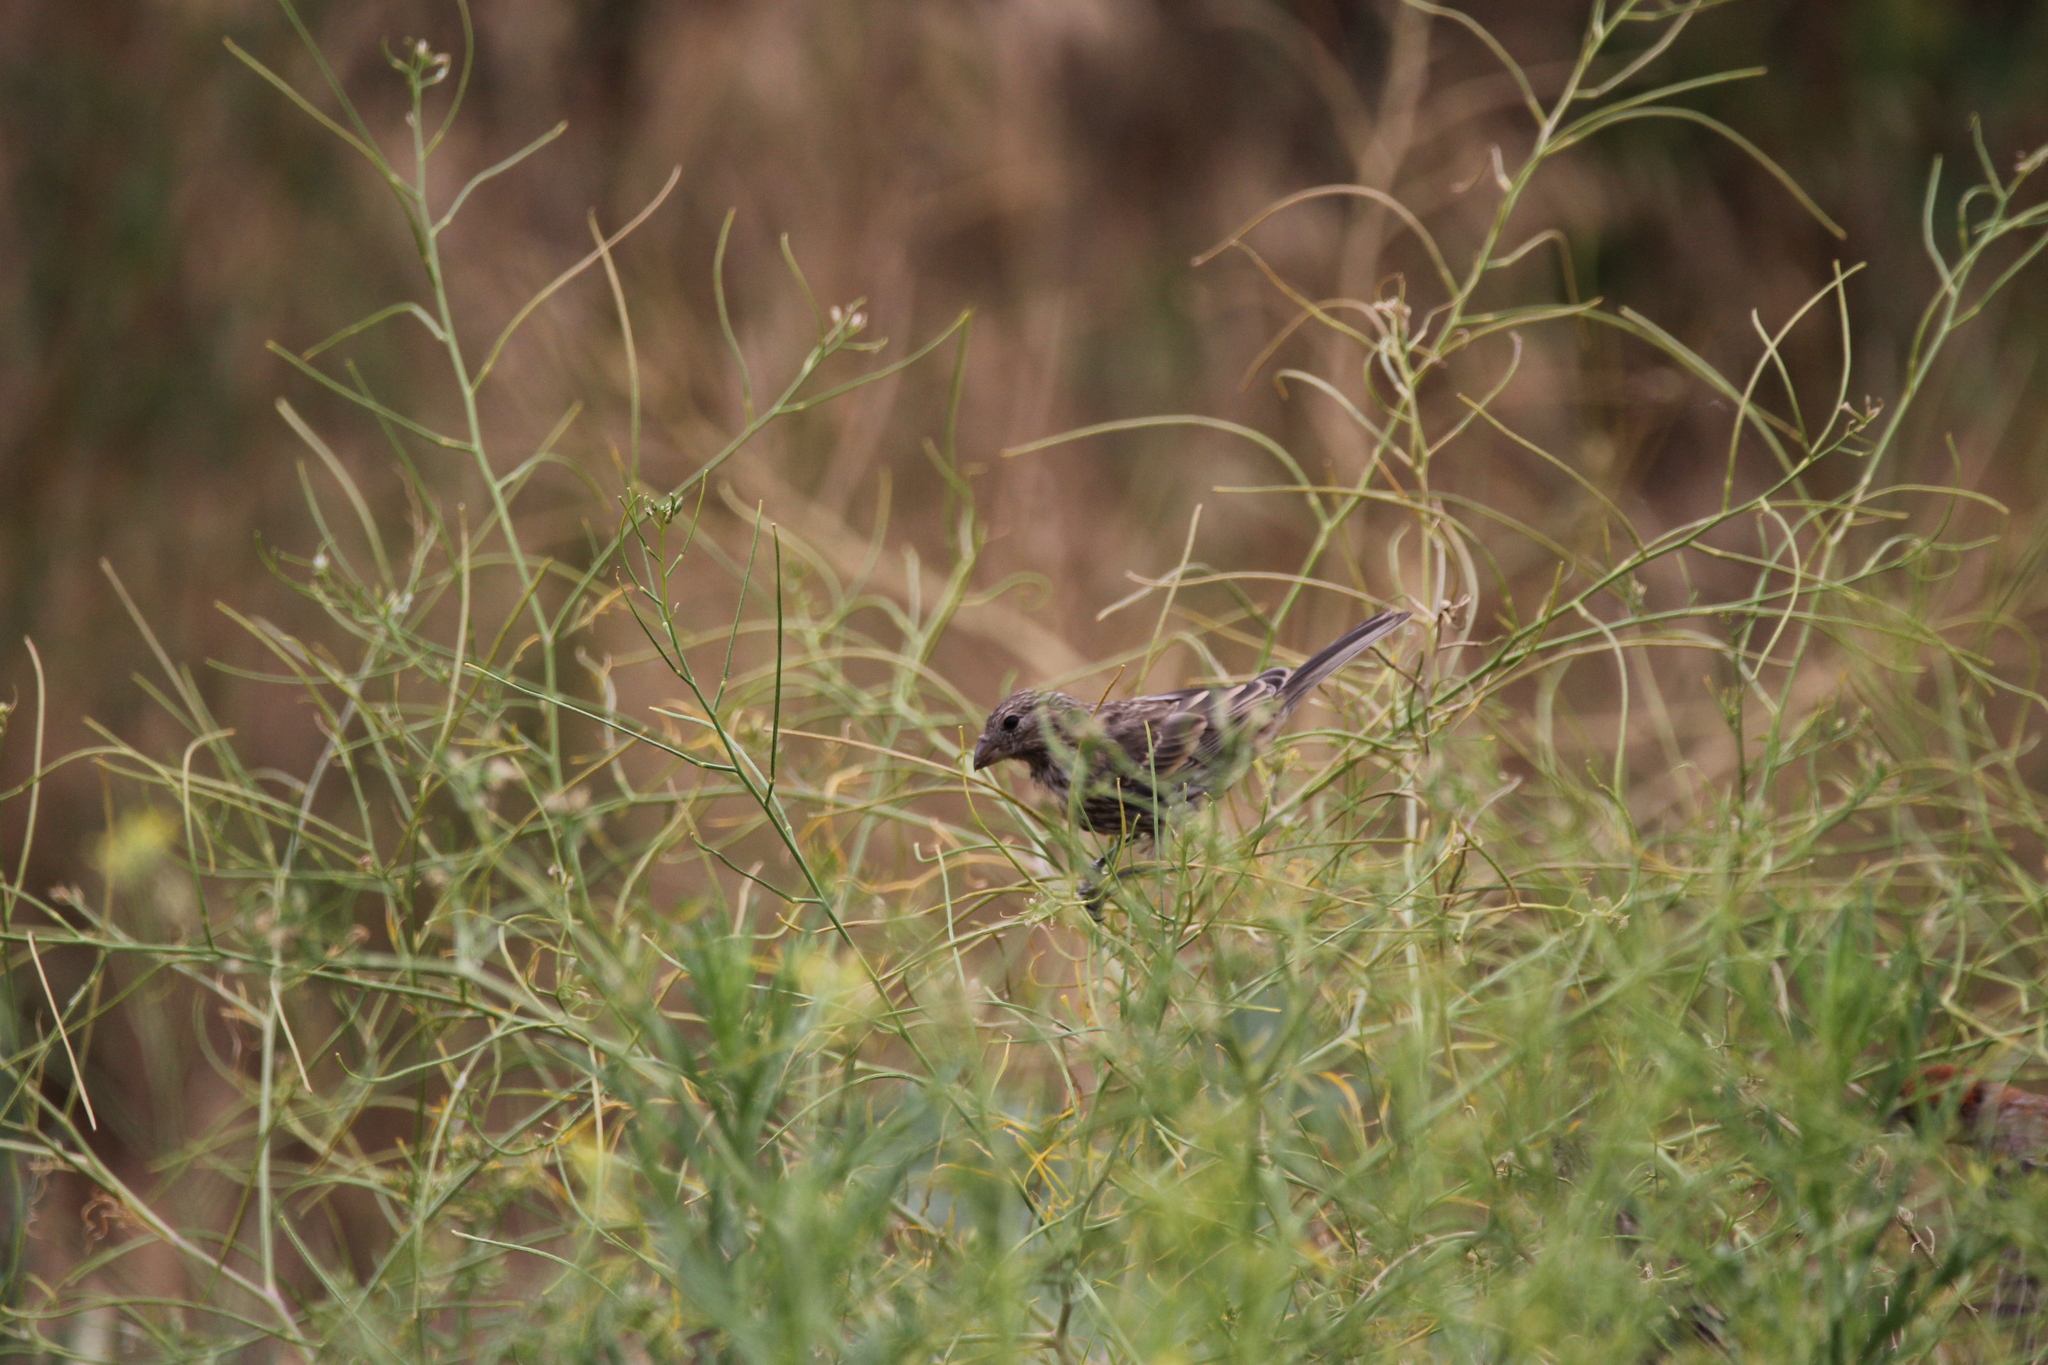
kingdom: Animalia
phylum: Chordata
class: Aves
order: Passeriformes
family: Fringillidae
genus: Haemorhous
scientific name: Haemorhous mexicanus
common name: House finch
